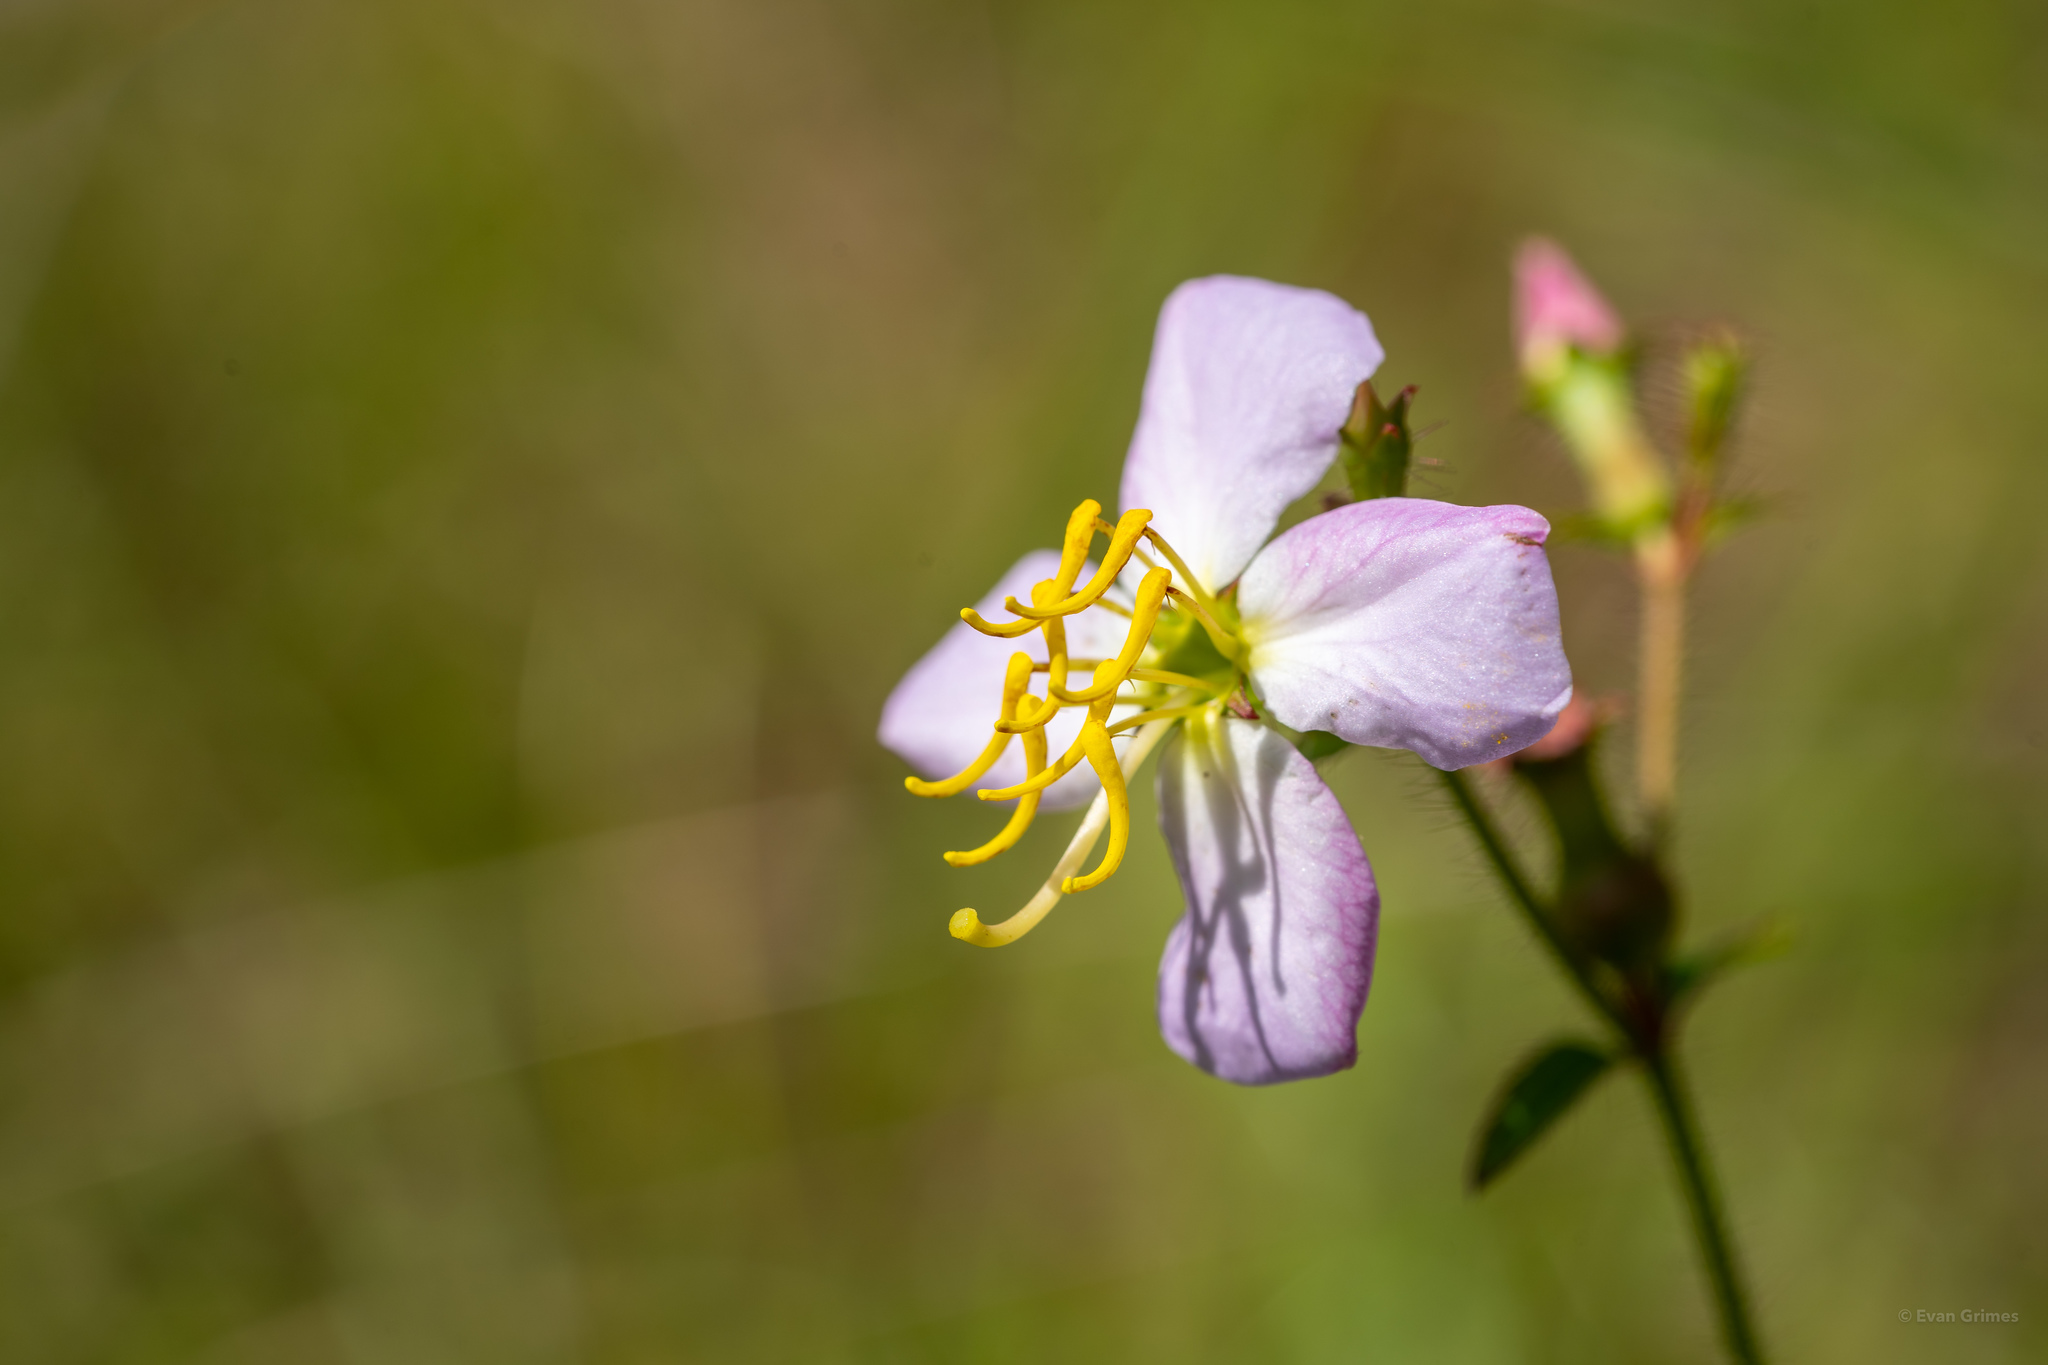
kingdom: Plantae
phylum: Tracheophyta
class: Magnoliopsida
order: Myrtales
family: Melastomataceae
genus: Rhexia
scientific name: Rhexia mariana
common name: Dull meadow-pitcher
